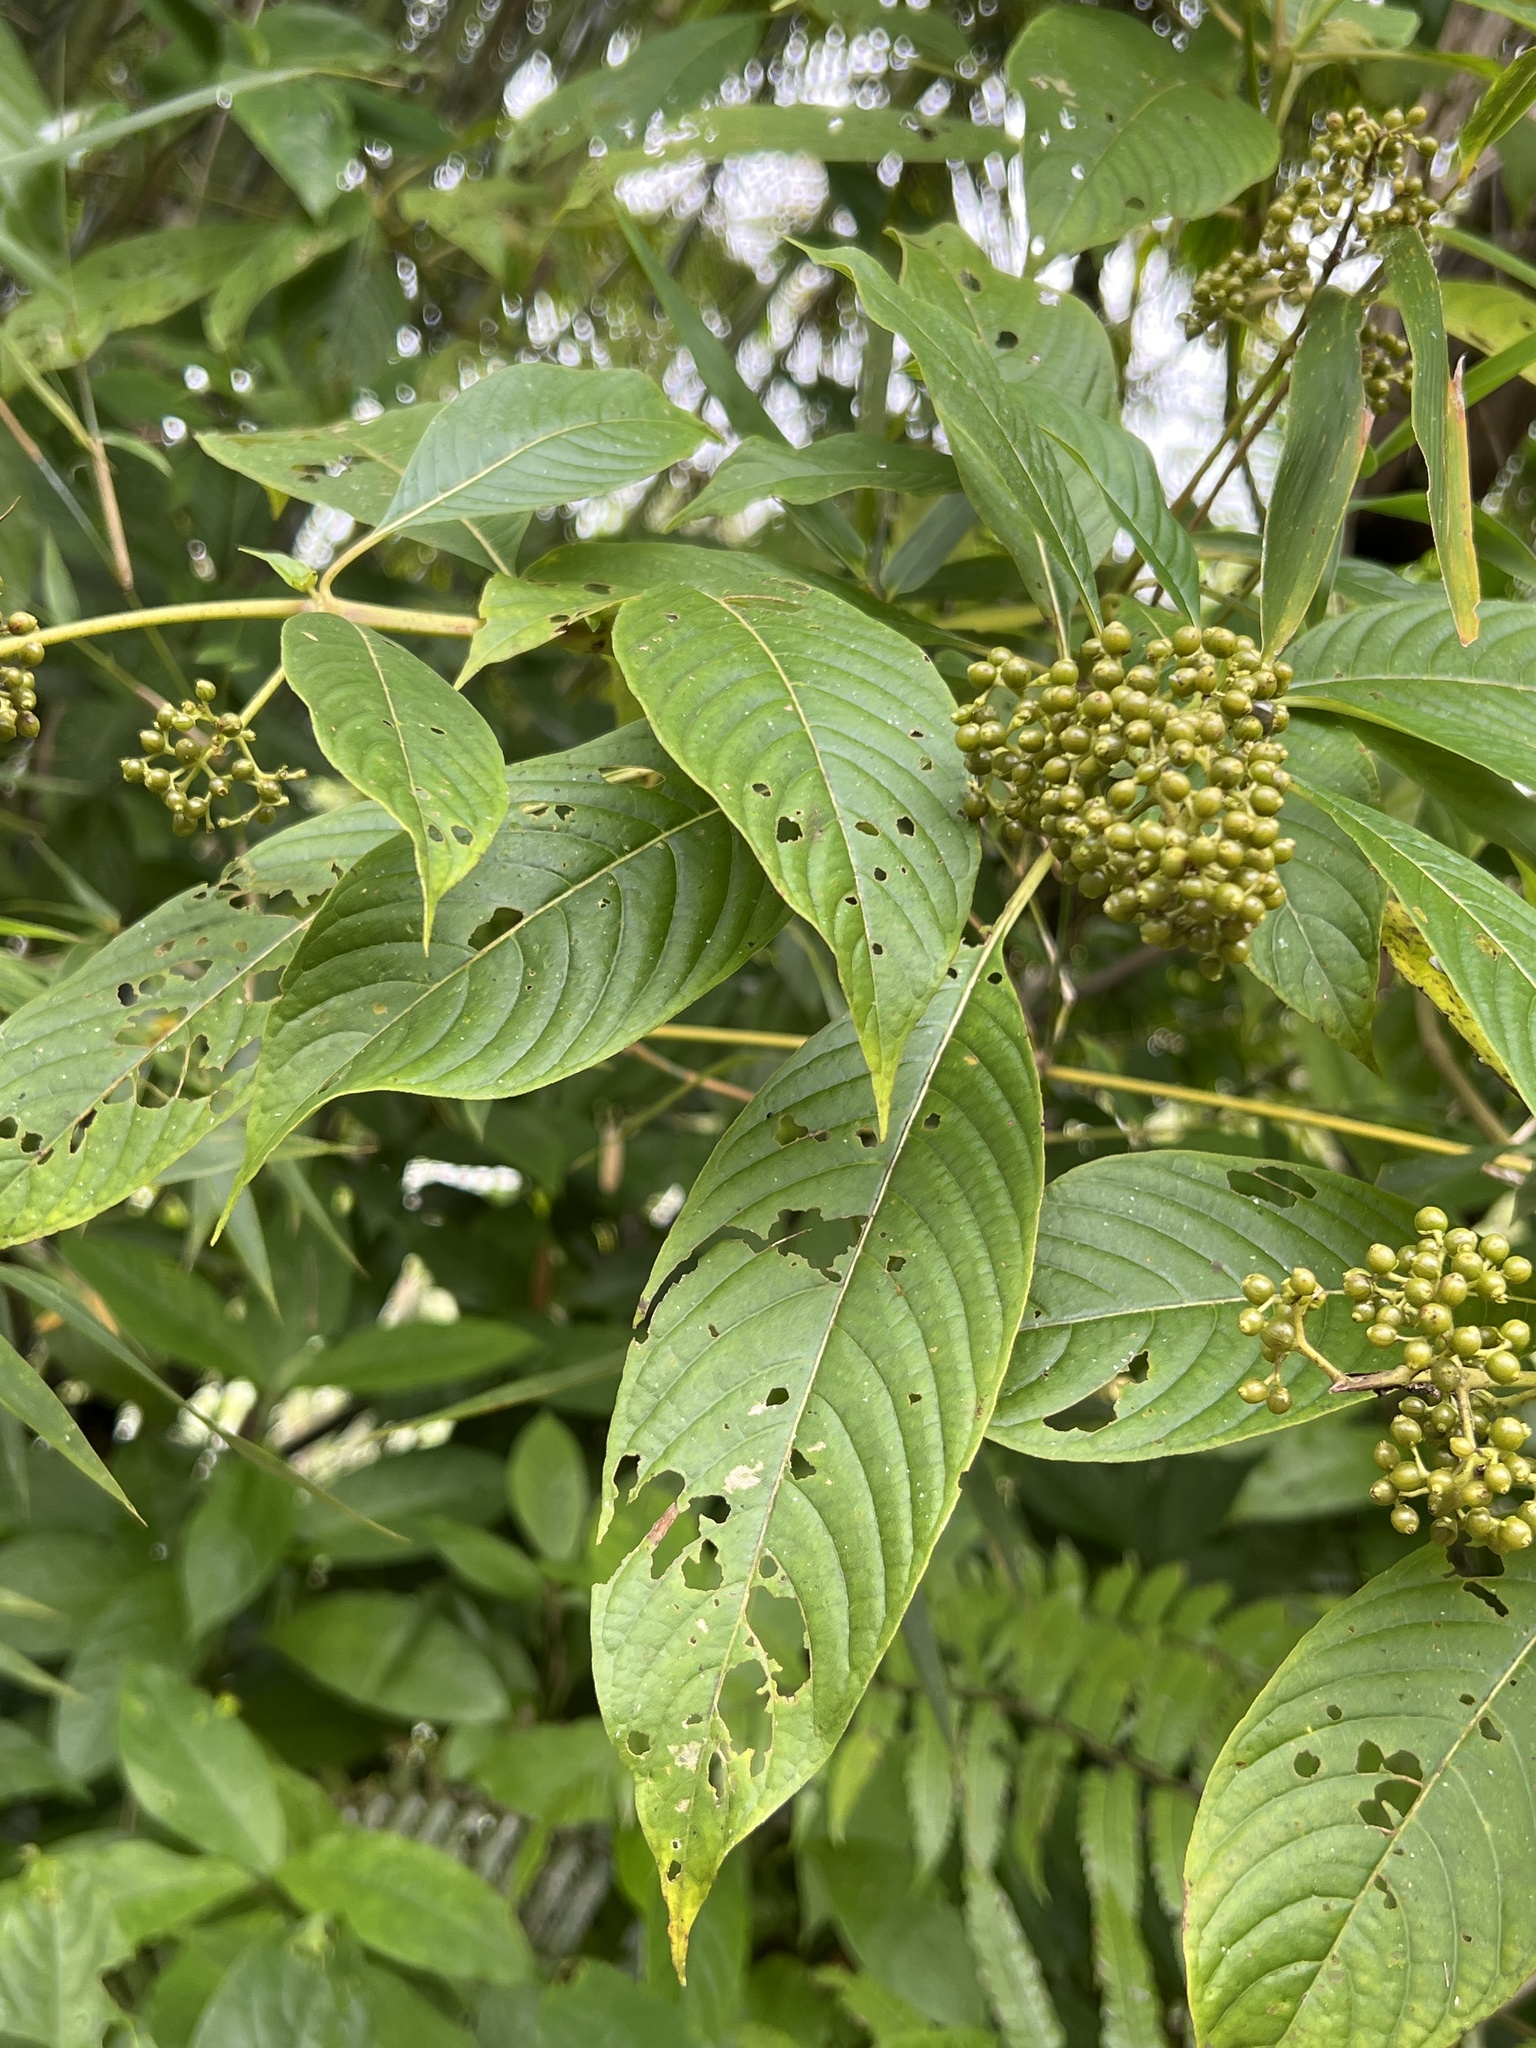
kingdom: Plantae
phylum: Tracheophyta
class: Magnoliopsida
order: Gentianales
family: Rubiaceae
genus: Palicourea
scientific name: Palicourea berteroana
